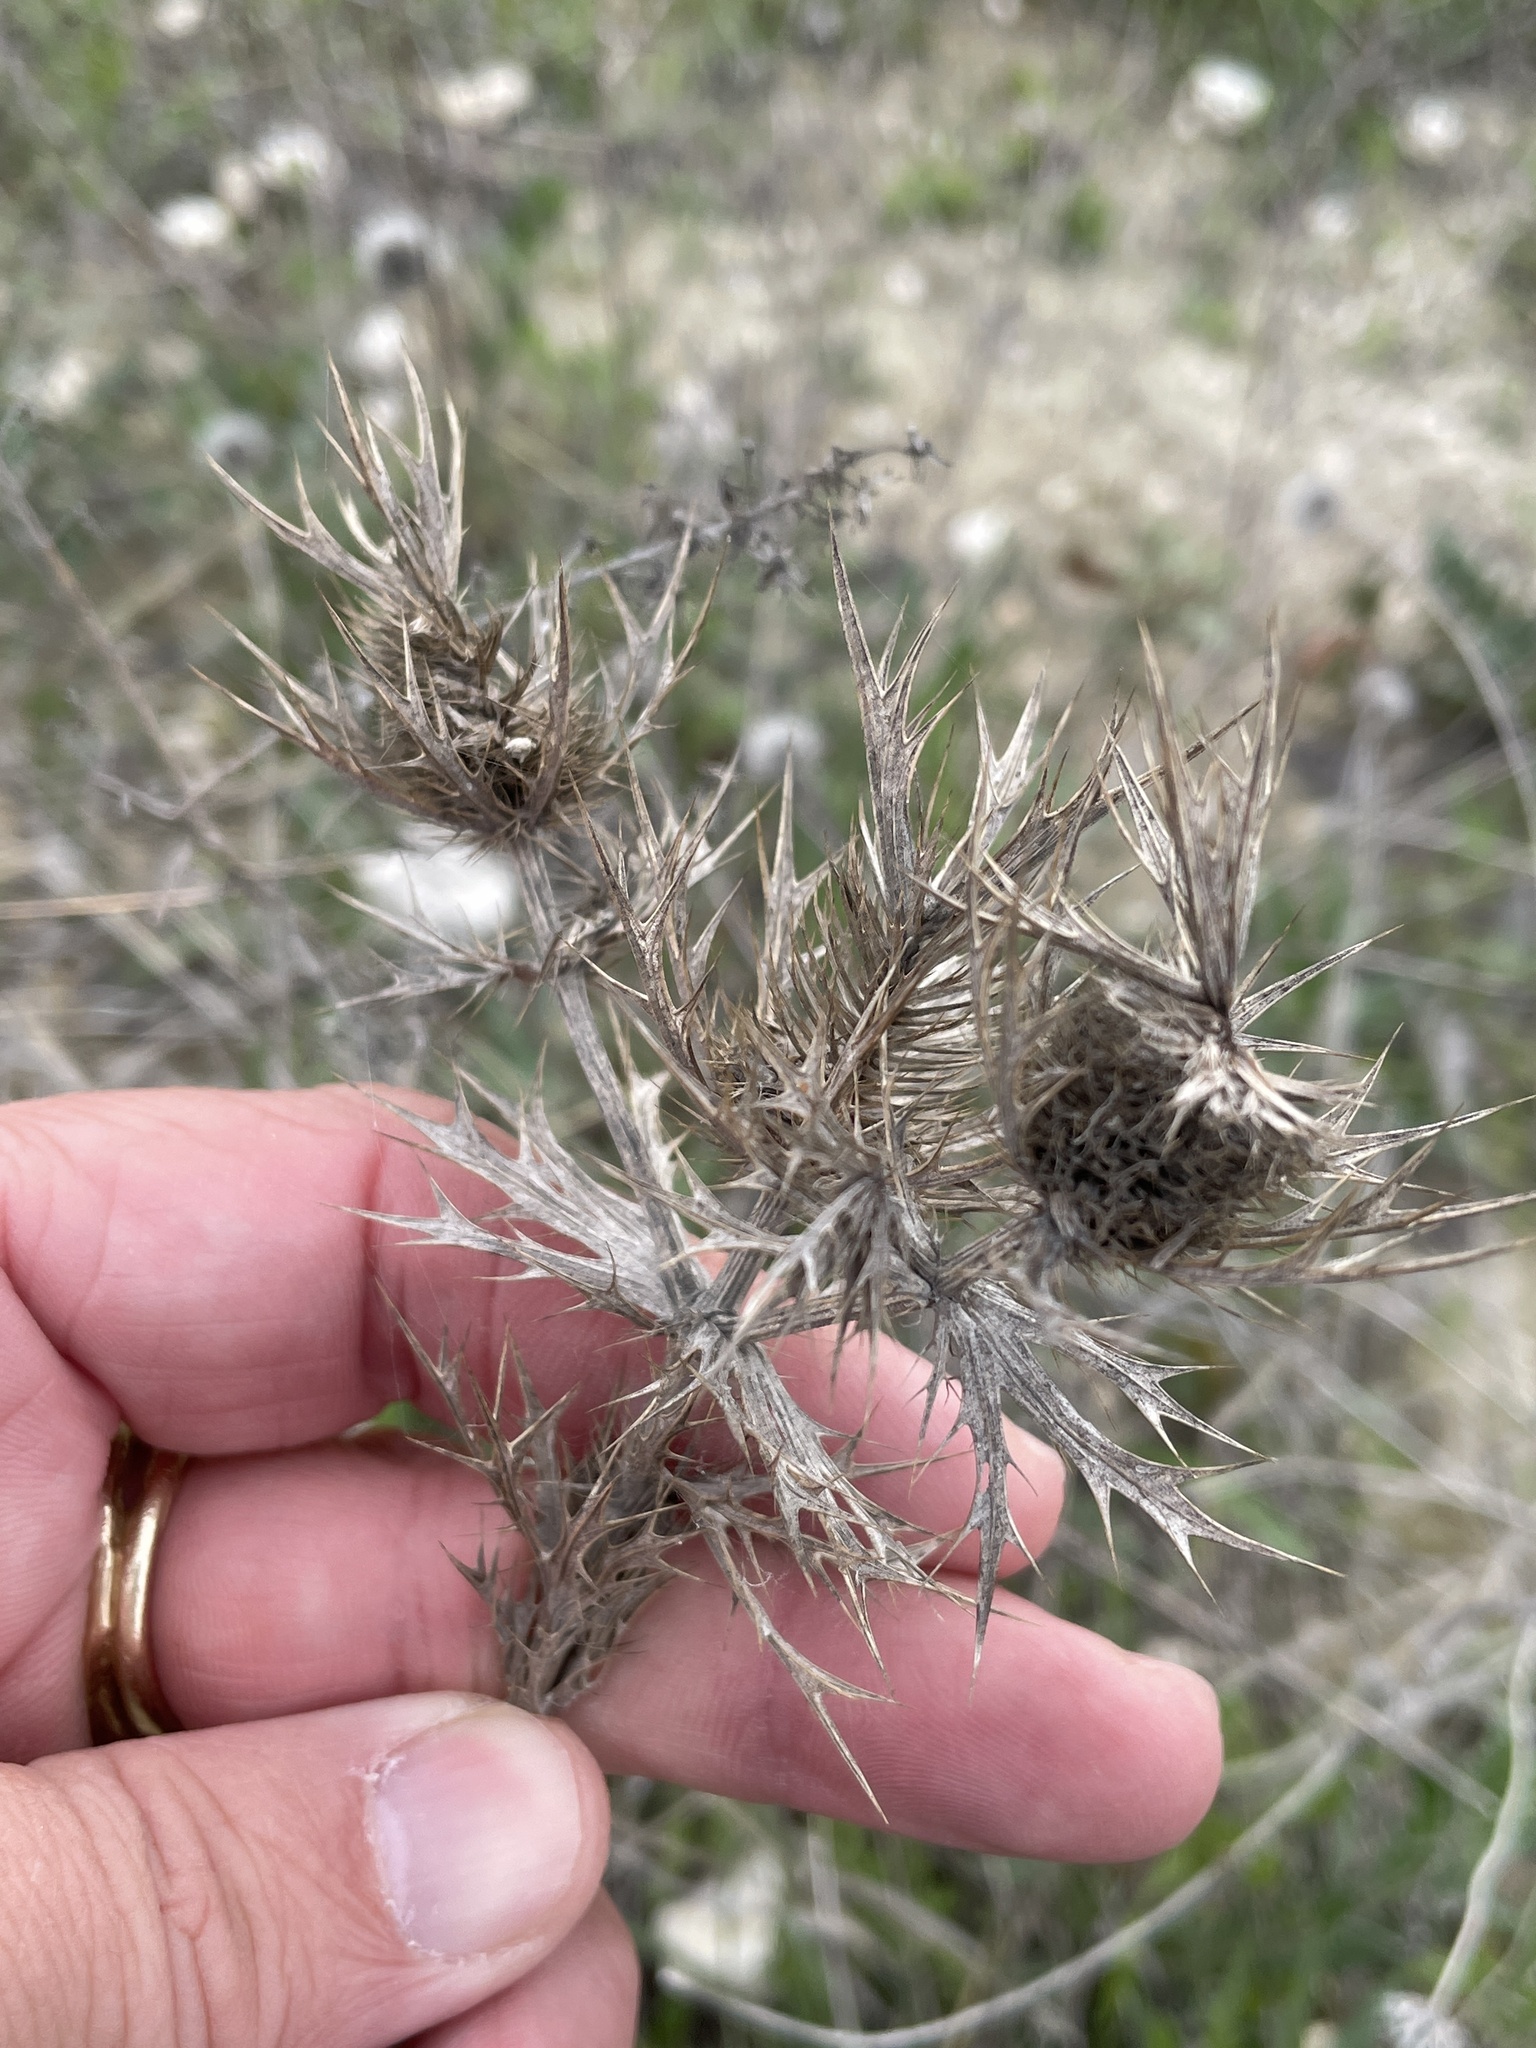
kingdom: Plantae
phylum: Tracheophyta
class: Magnoliopsida
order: Apiales
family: Apiaceae
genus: Eryngium
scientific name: Eryngium leavenworthii
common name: Leavenworth's eryngo
